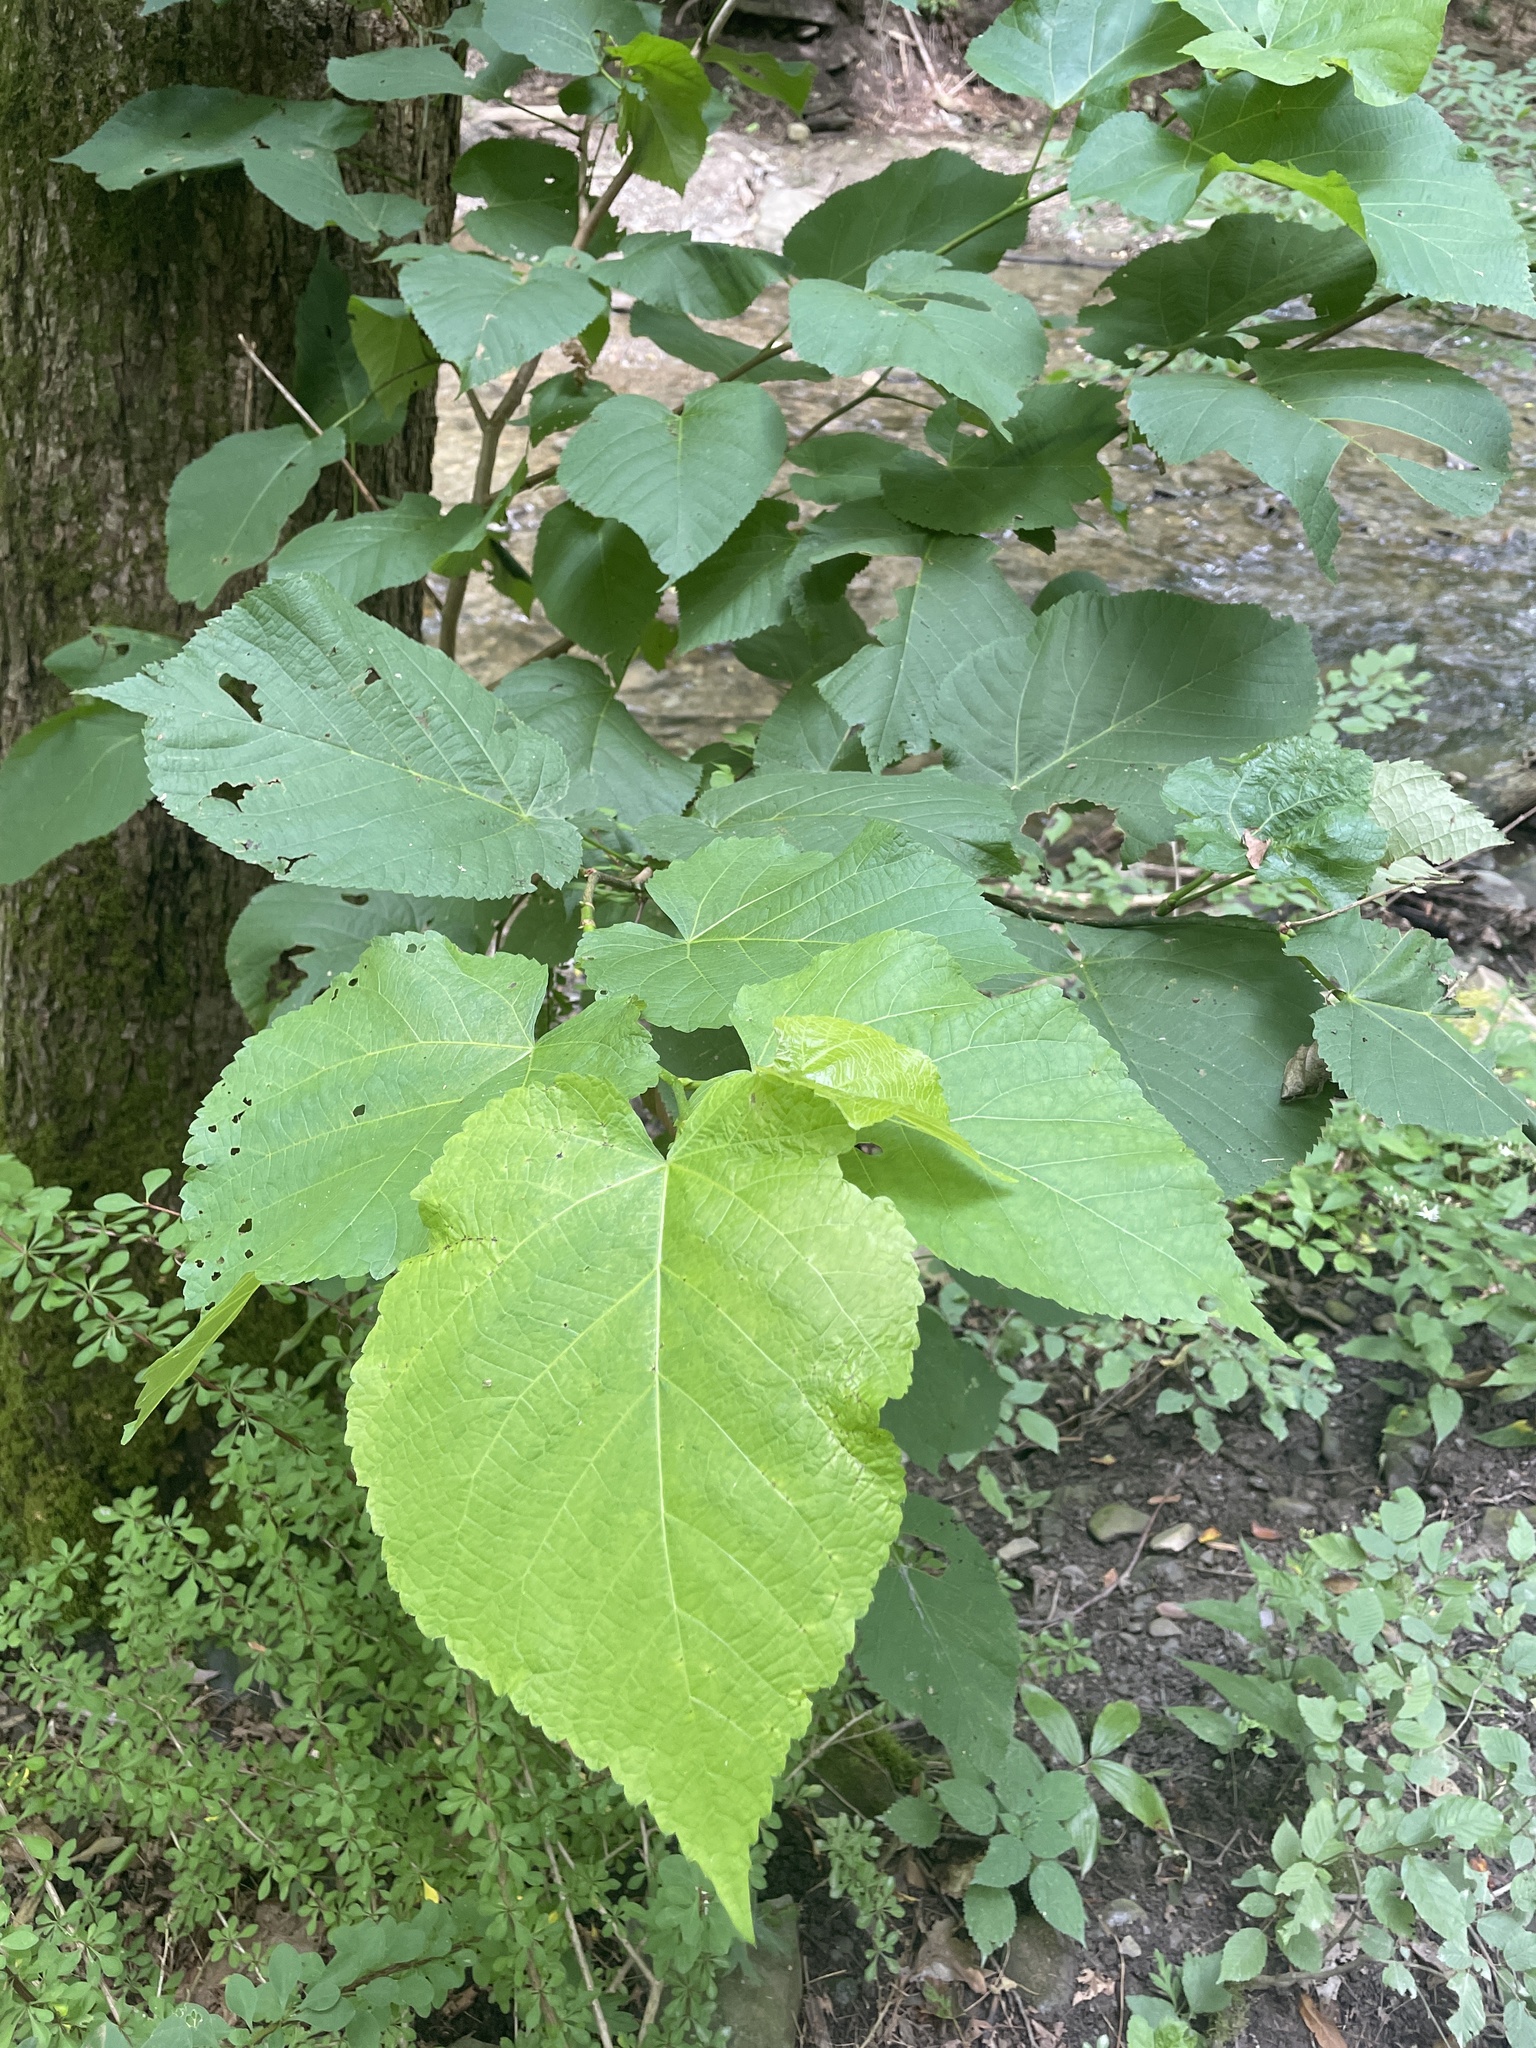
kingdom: Plantae
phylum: Tracheophyta
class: Magnoliopsida
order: Malvales
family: Malvaceae
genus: Tilia
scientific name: Tilia americana
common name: Basswood
